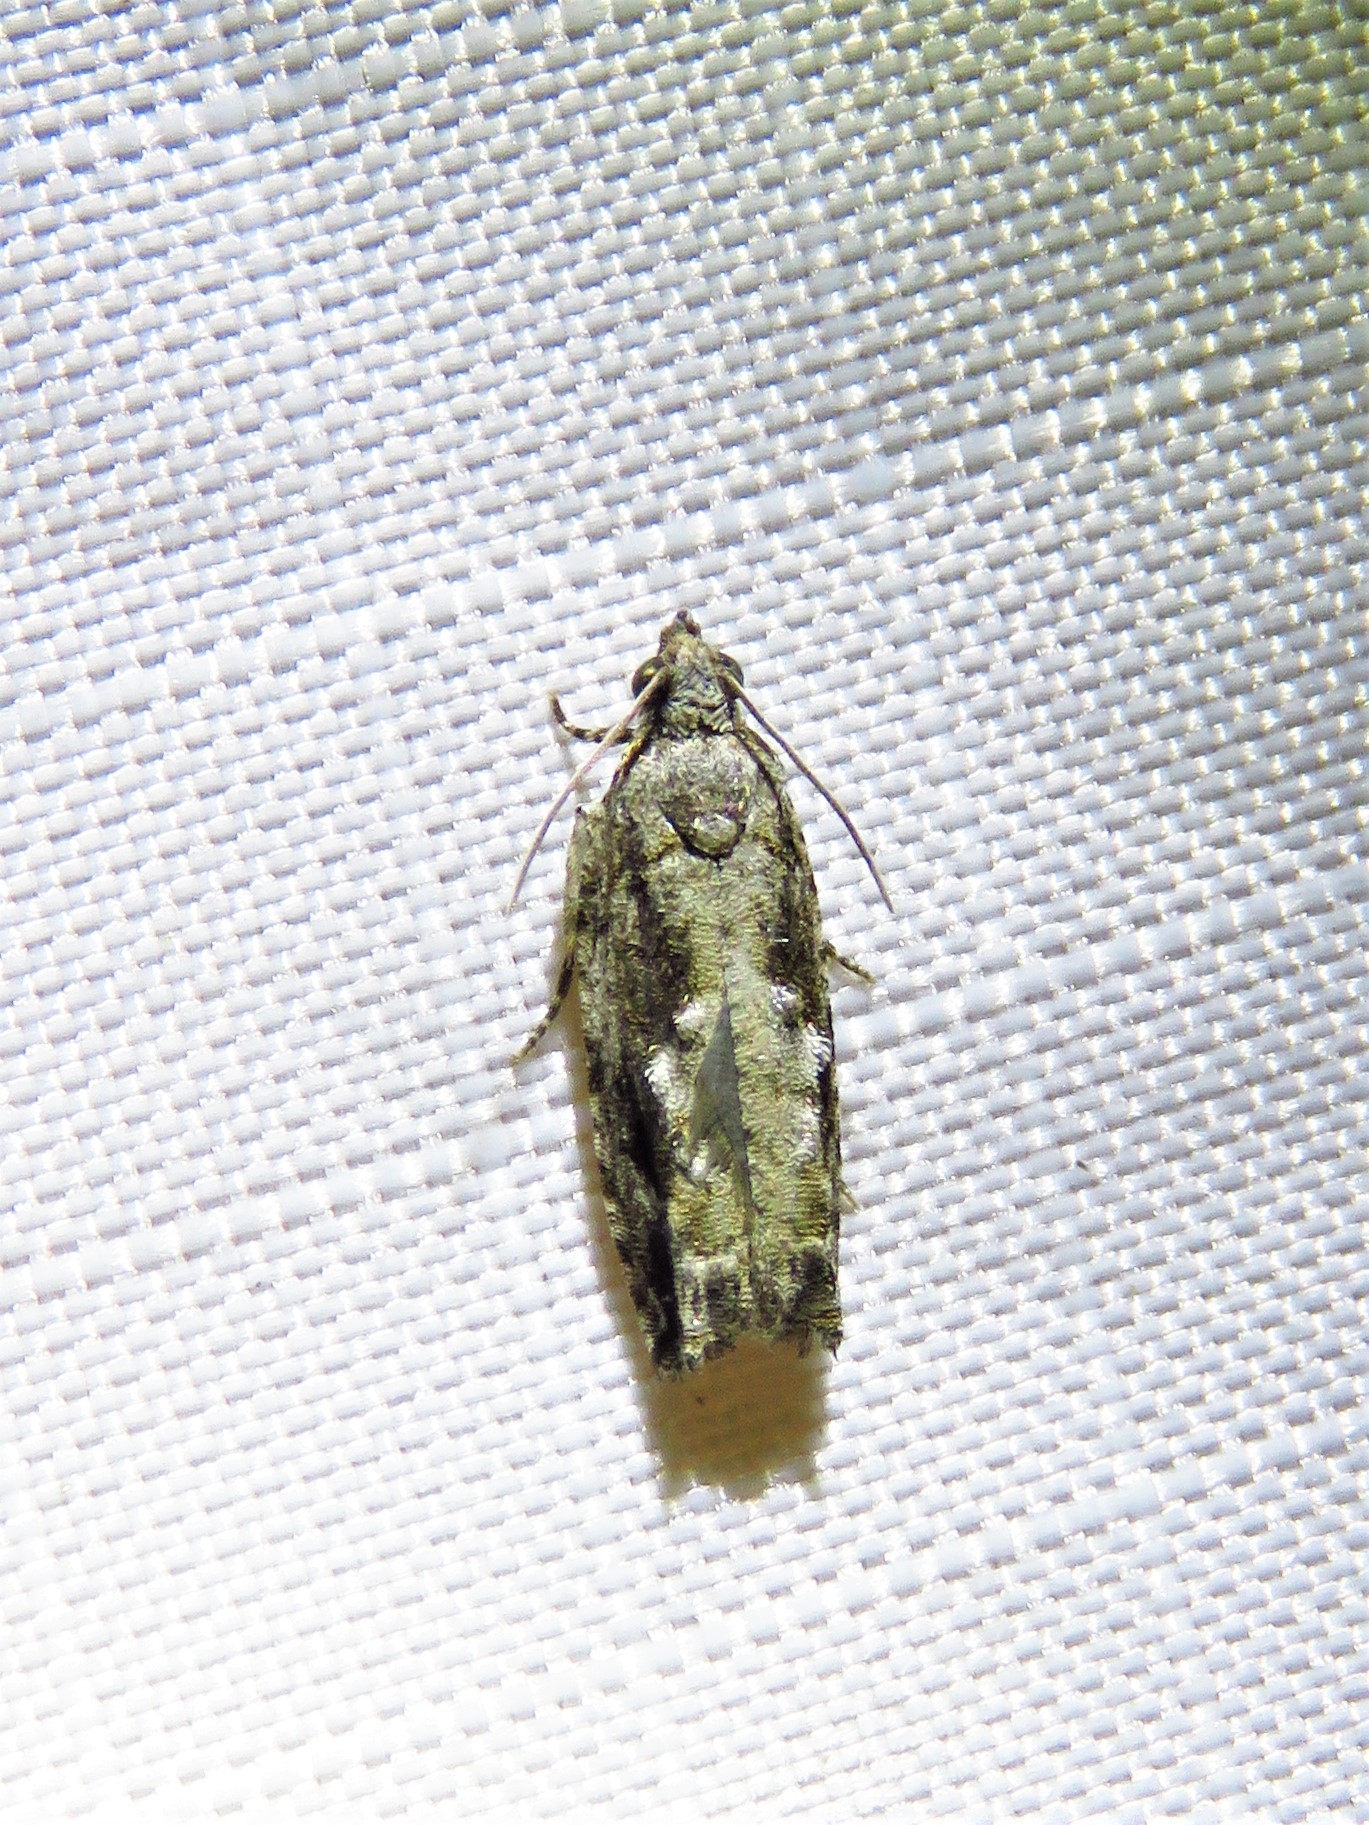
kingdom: Animalia
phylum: Arthropoda
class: Insecta
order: Lepidoptera
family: Tortricidae
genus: Gretchena
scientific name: Gretchena bolliana
